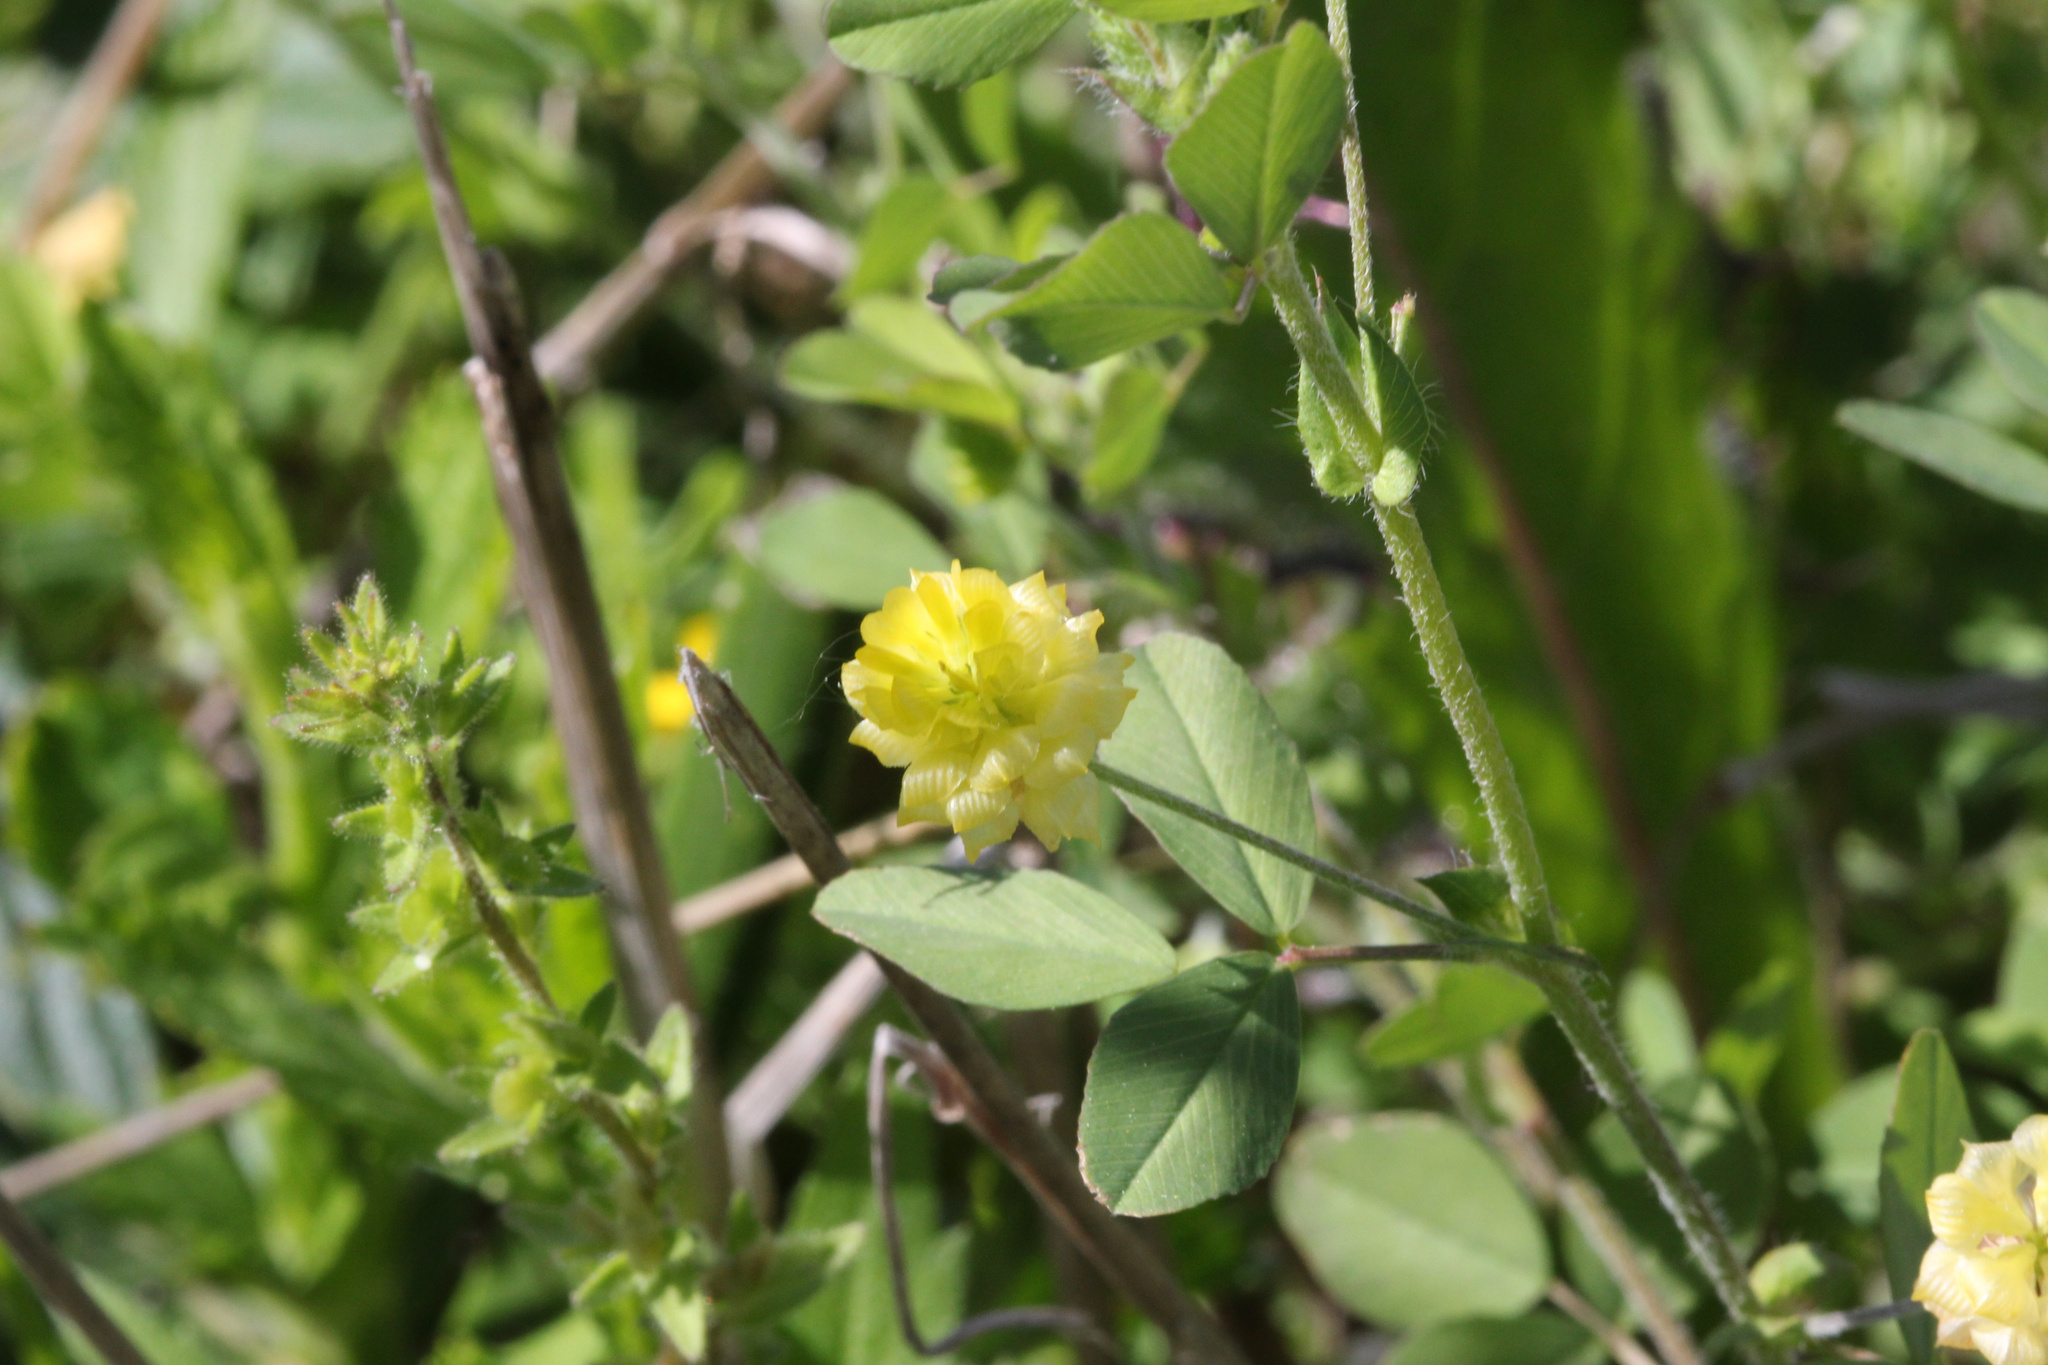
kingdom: Plantae
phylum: Tracheophyta
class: Magnoliopsida
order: Fabales
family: Fabaceae
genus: Trifolium
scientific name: Trifolium campestre
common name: Field clover
